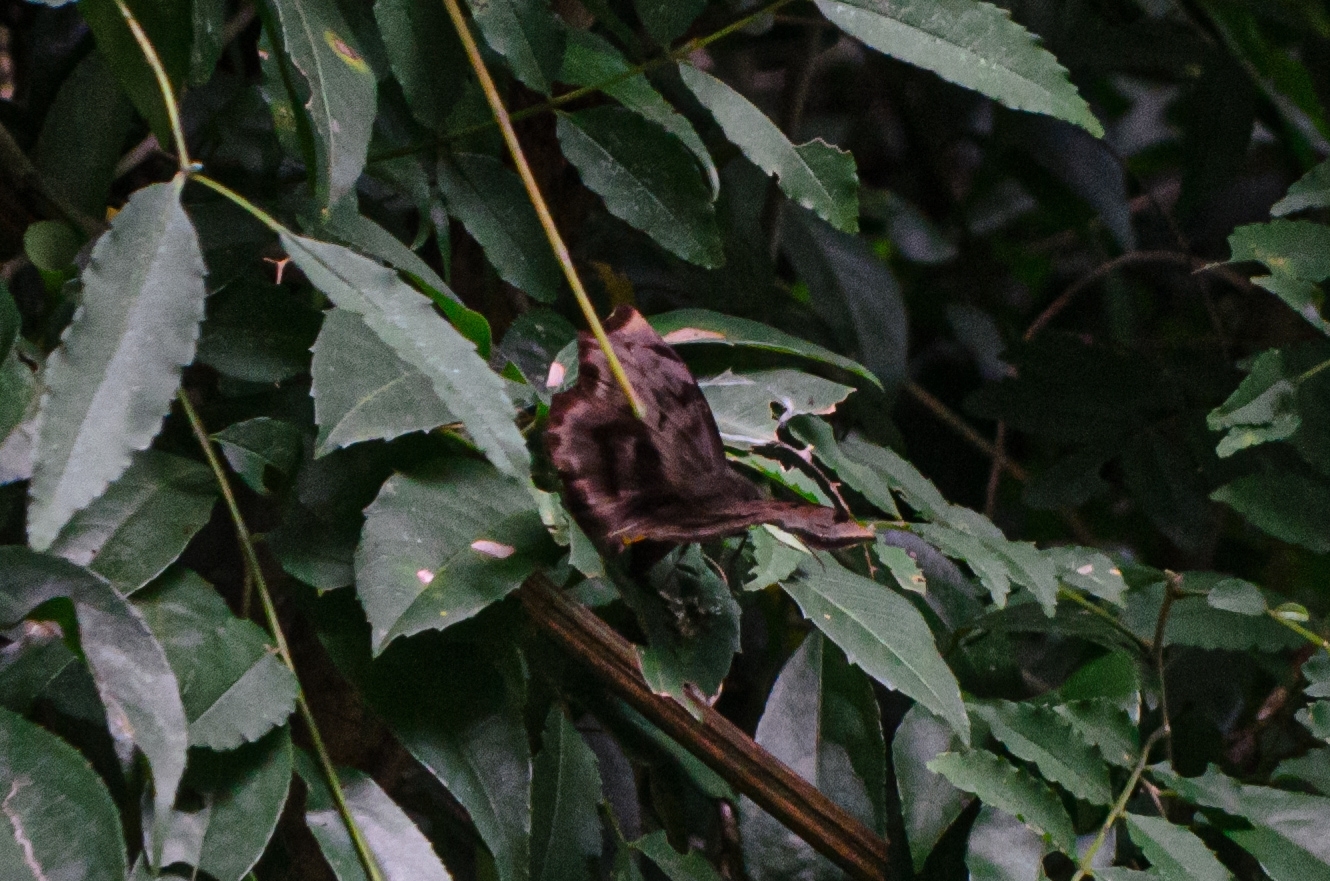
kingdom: Animalia
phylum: Arthropoda
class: Insecta
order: Lepidoptera
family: Hesperiidae
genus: Achlyodes
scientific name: Achlyodes busirus
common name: Giant sicklewing
